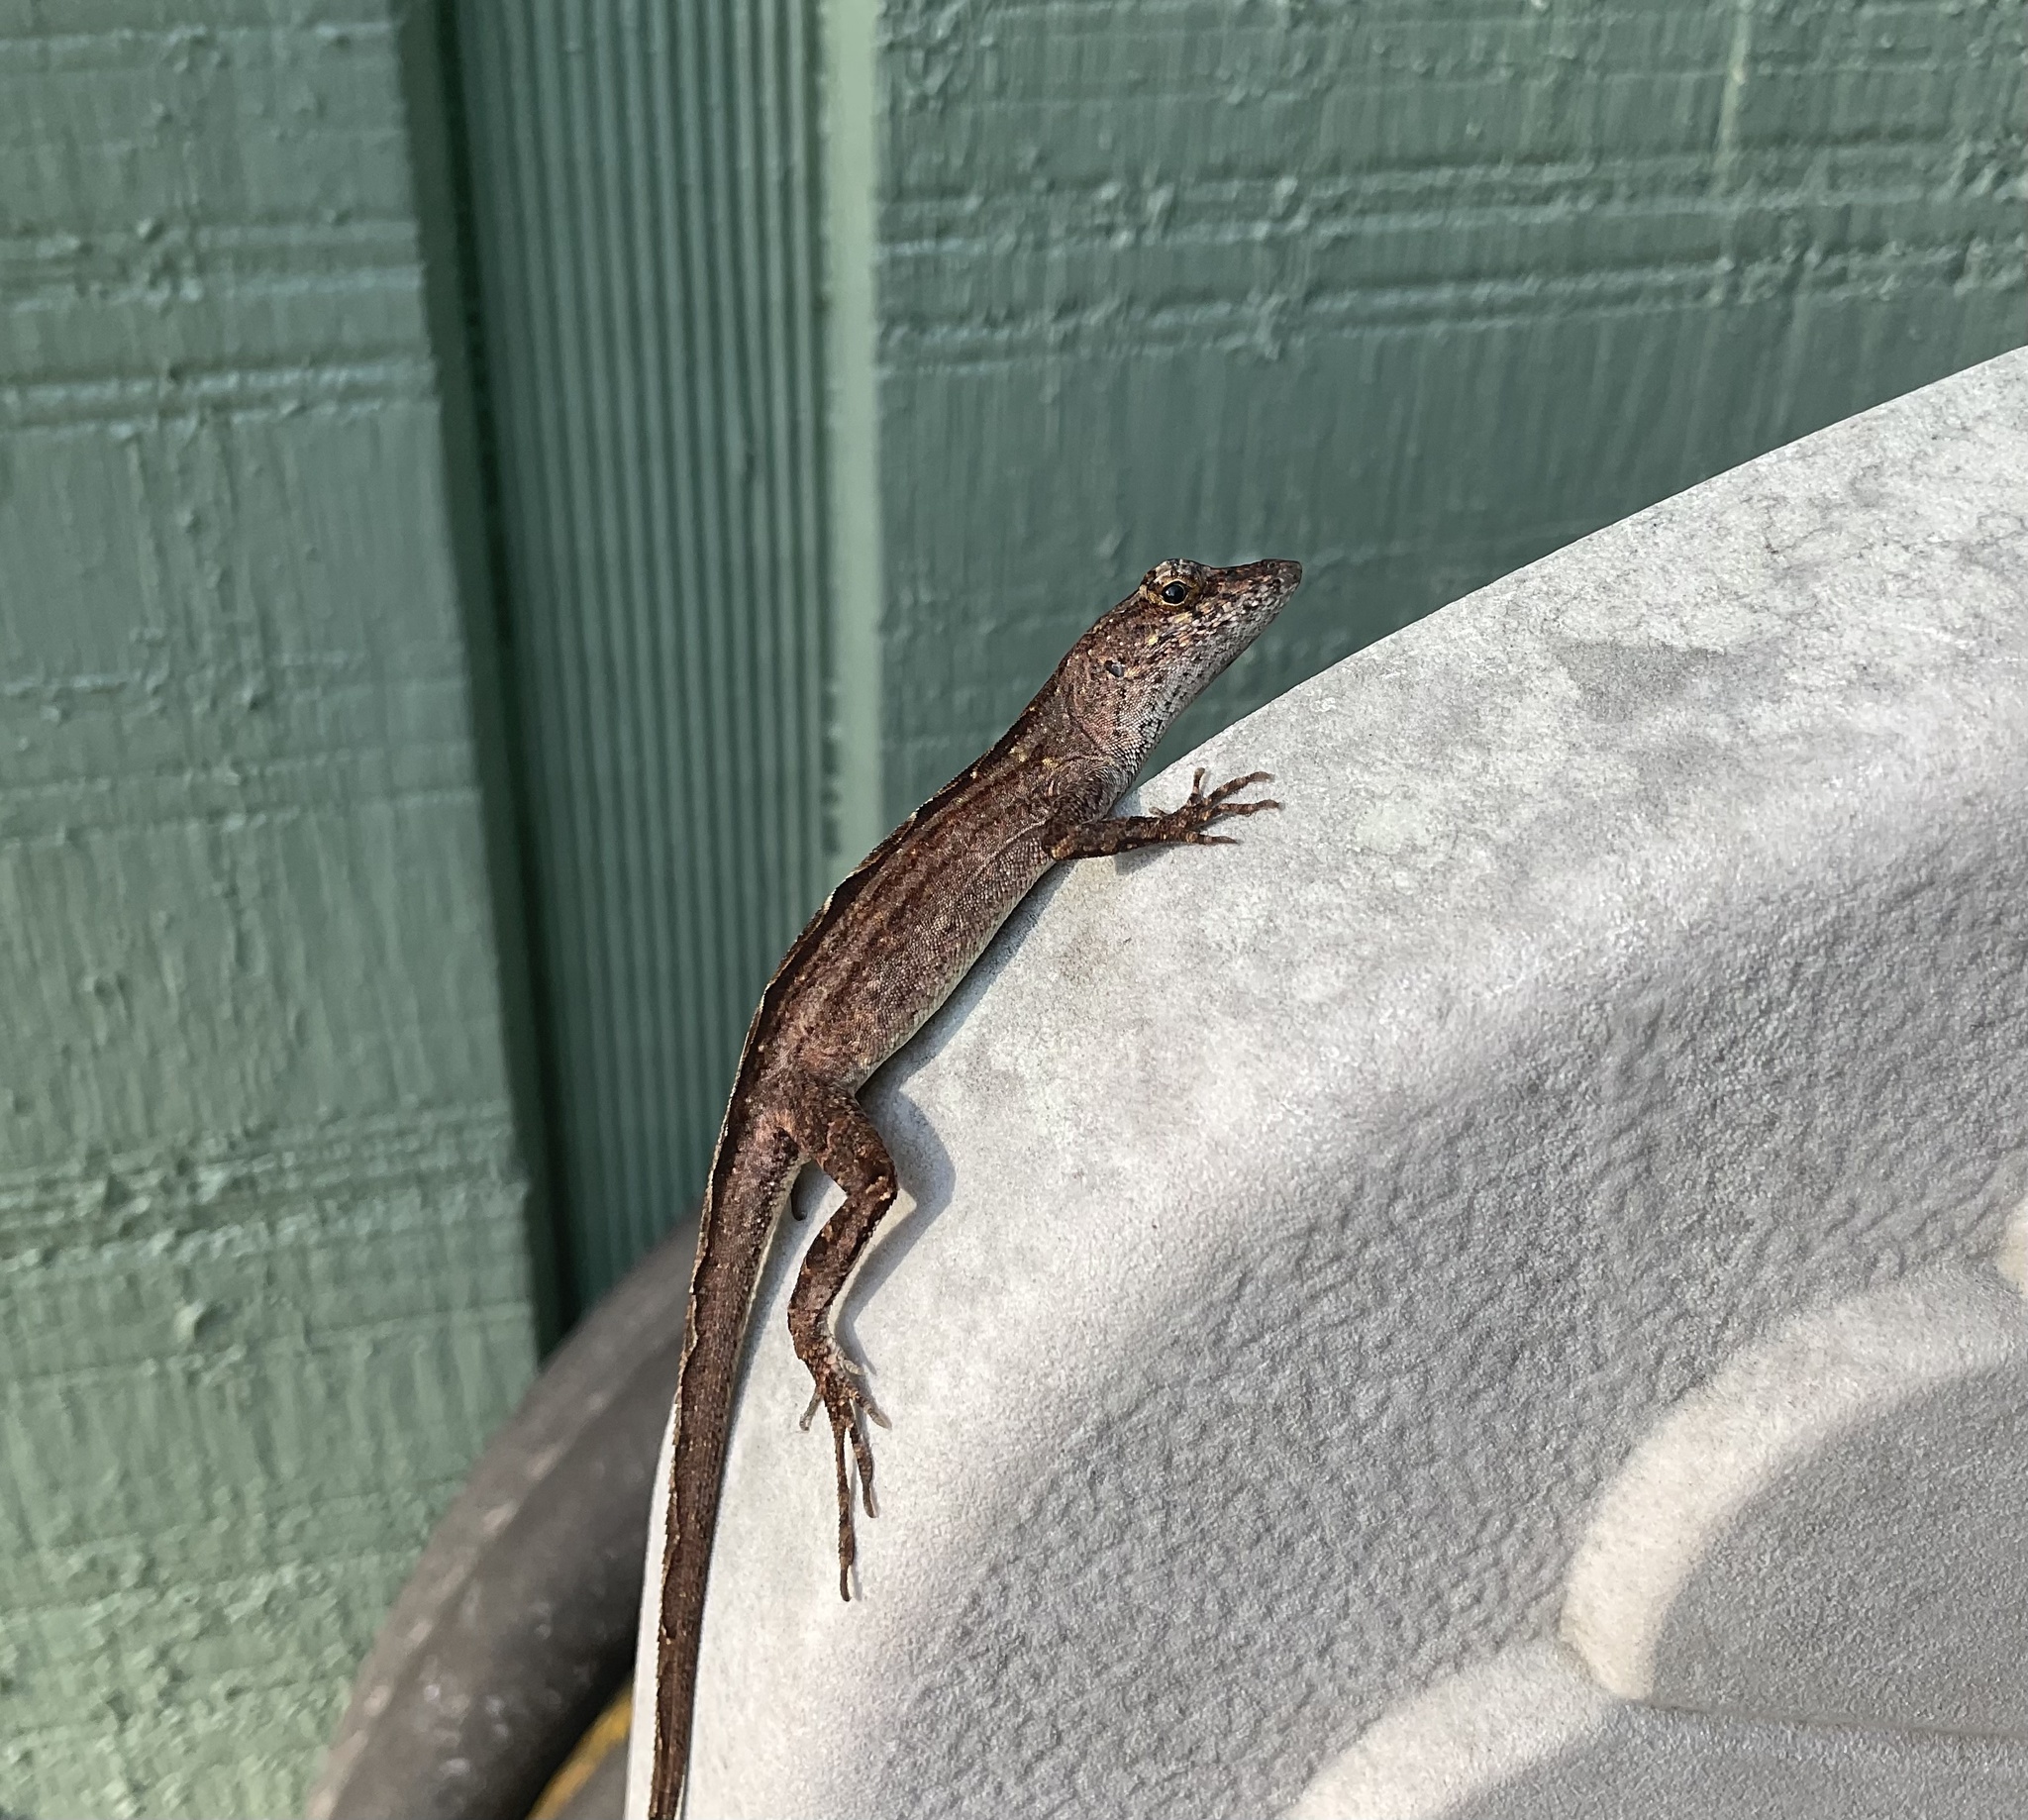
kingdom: Animalia
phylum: Chordata
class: Squamata
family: Dactyloidae
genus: Anolis
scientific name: Anolis sagrei
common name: Brown anole
